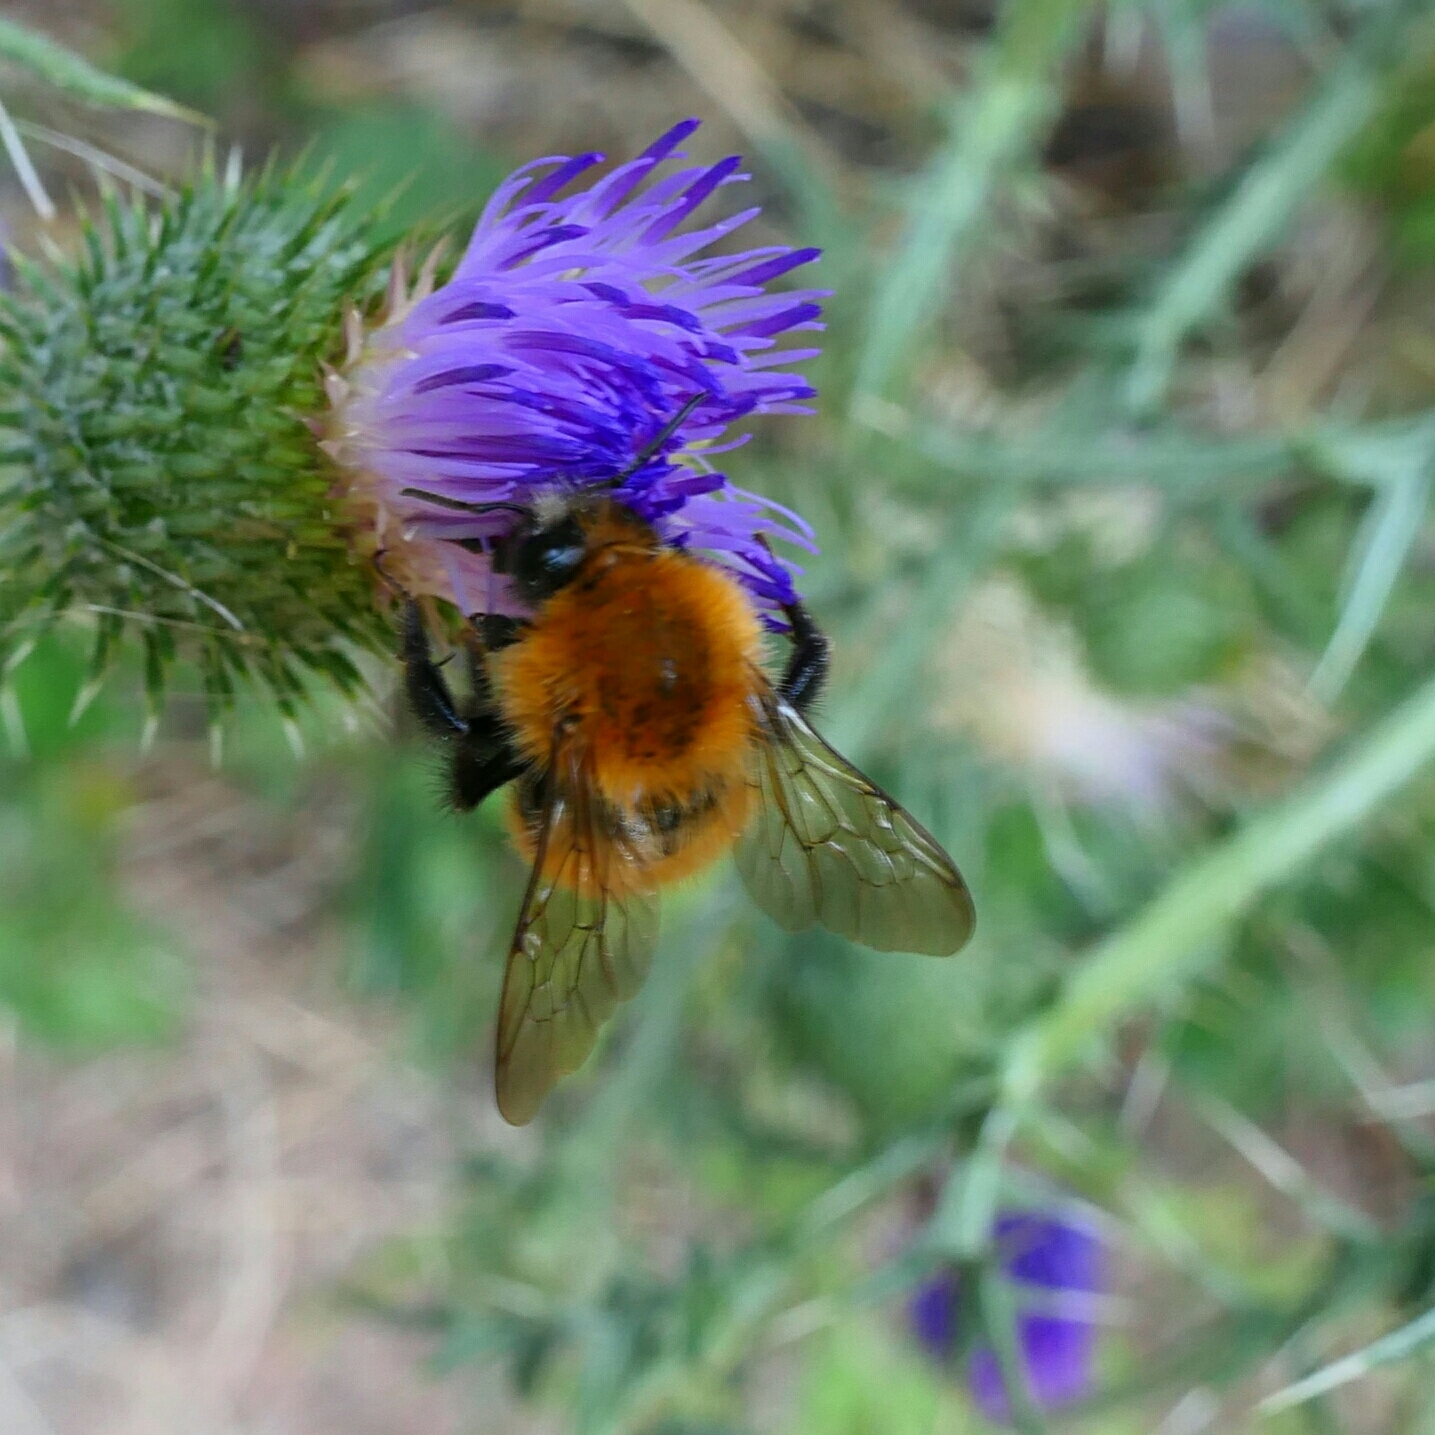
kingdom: Animalia
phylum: Arthropoda
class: Insecta
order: Hymenoptera
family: Apidae
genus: Bombus
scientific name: Bombus pascuorum
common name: Common carder bee
